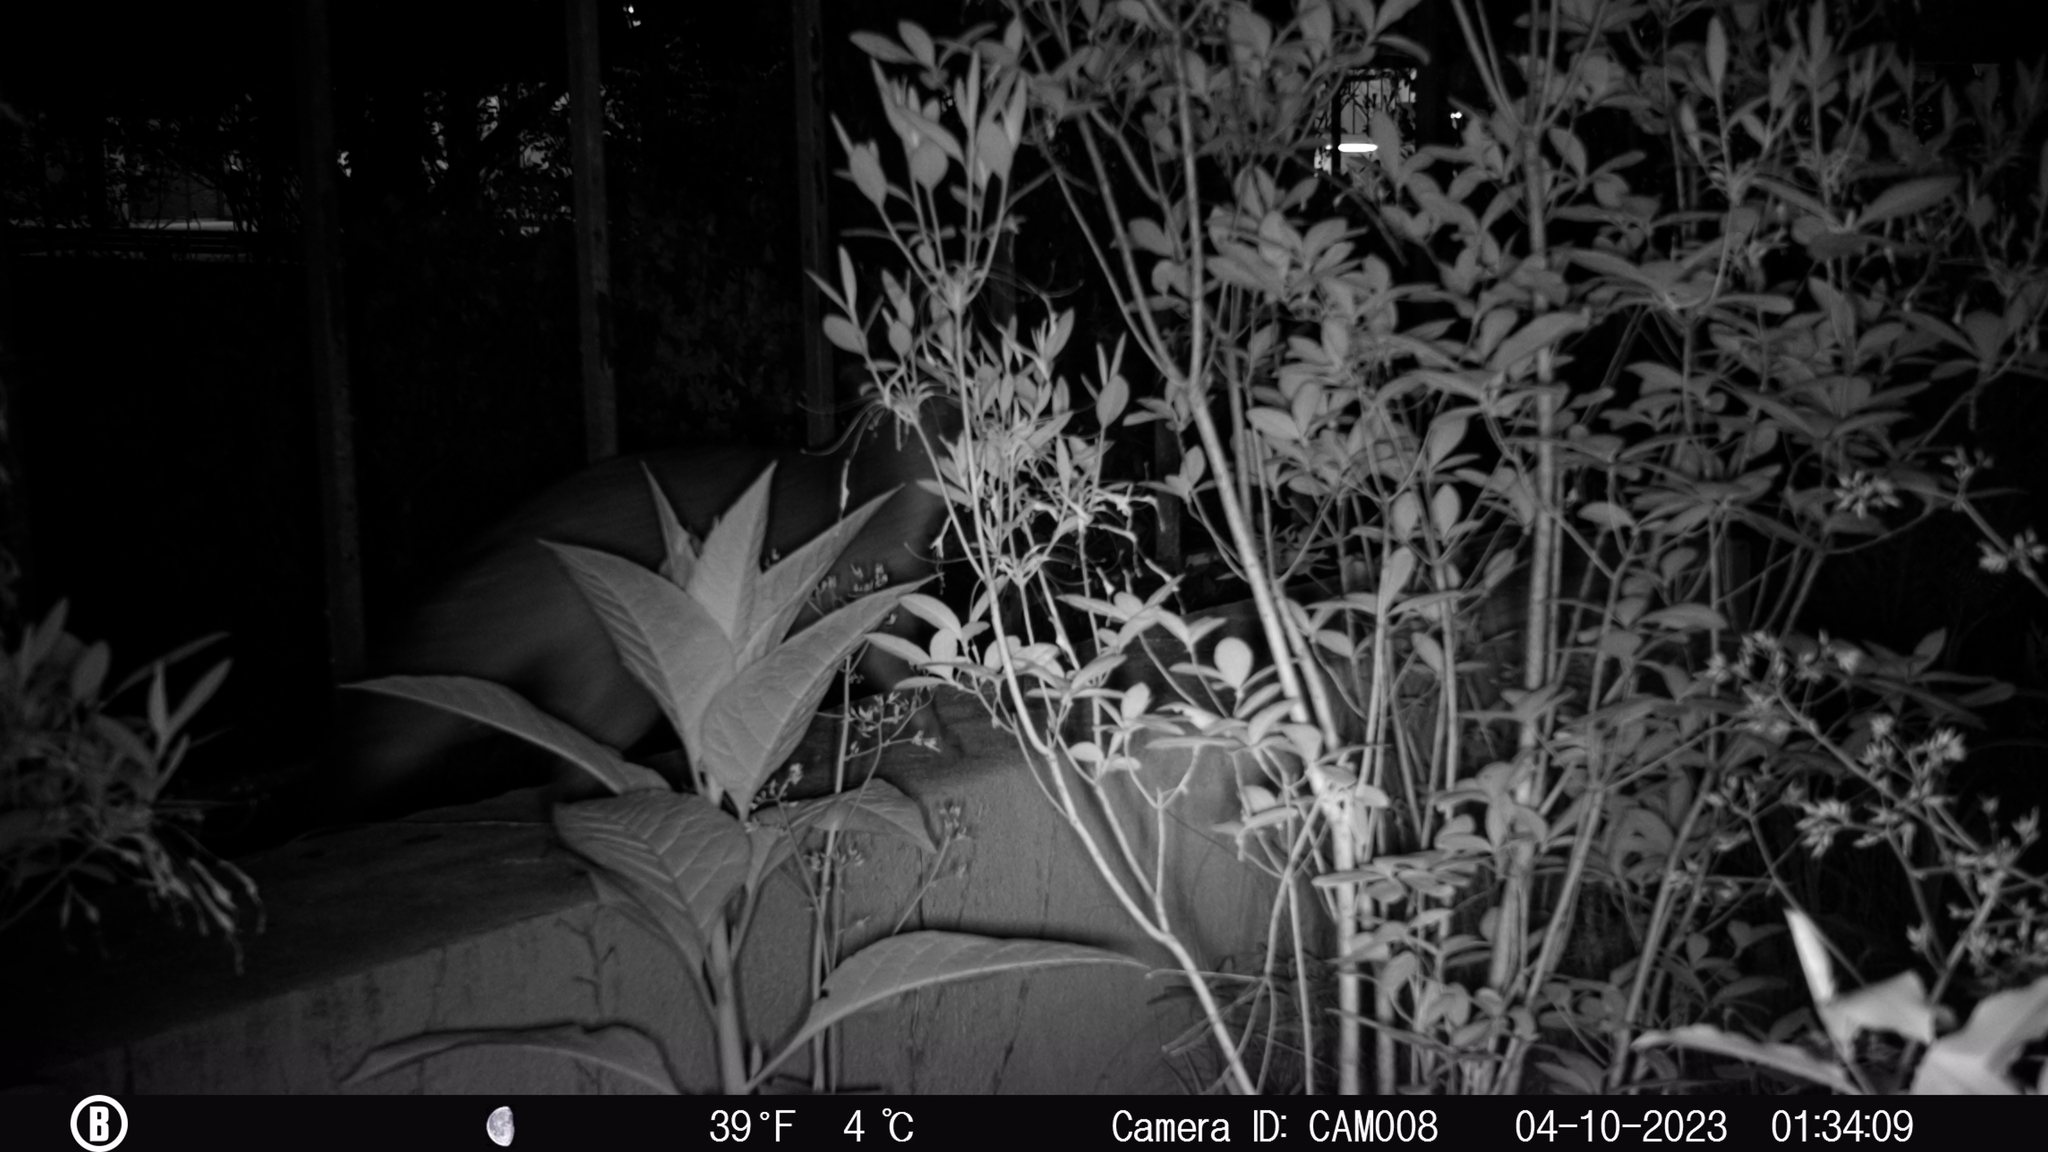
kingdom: Animalia
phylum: Chordata
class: Mammalia
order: Carnivora
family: Canidae
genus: Urocyon
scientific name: Urocyon cinereoargenteus
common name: Gray fox
